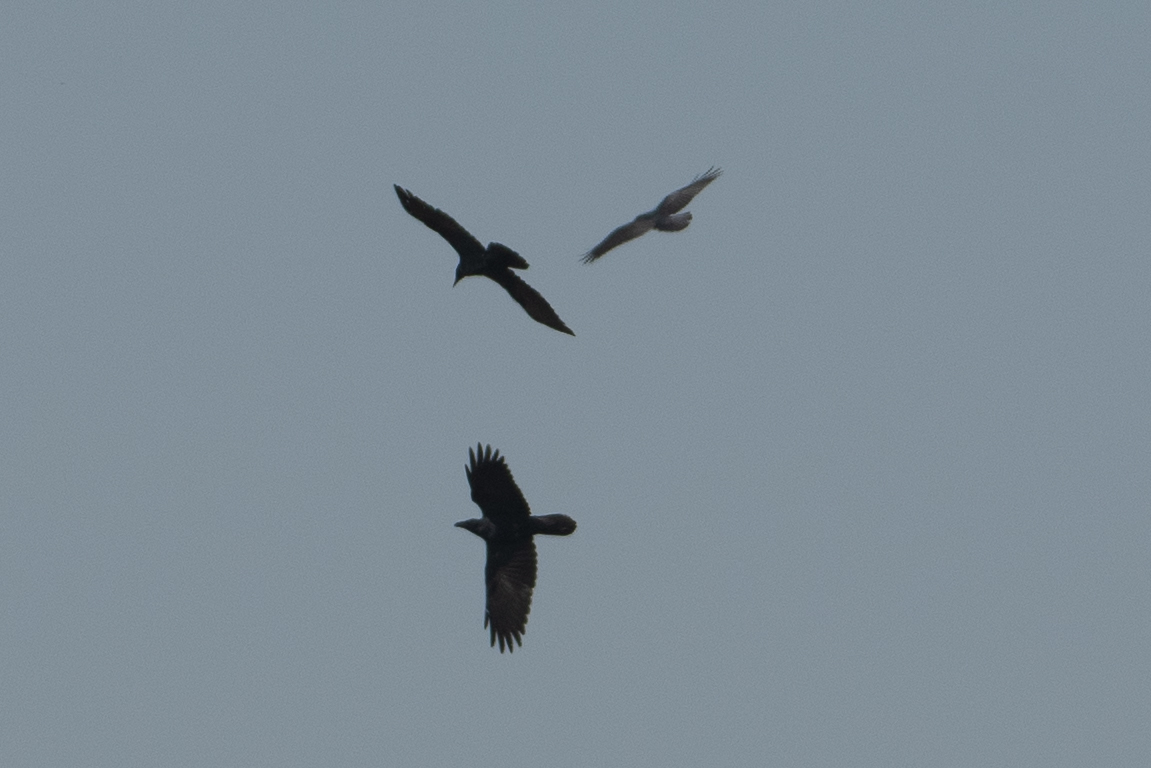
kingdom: Animalia
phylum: Chordata
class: Aves
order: Passeriformes
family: Corvidae
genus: Corvus
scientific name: Corvus corax
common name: Common raven
